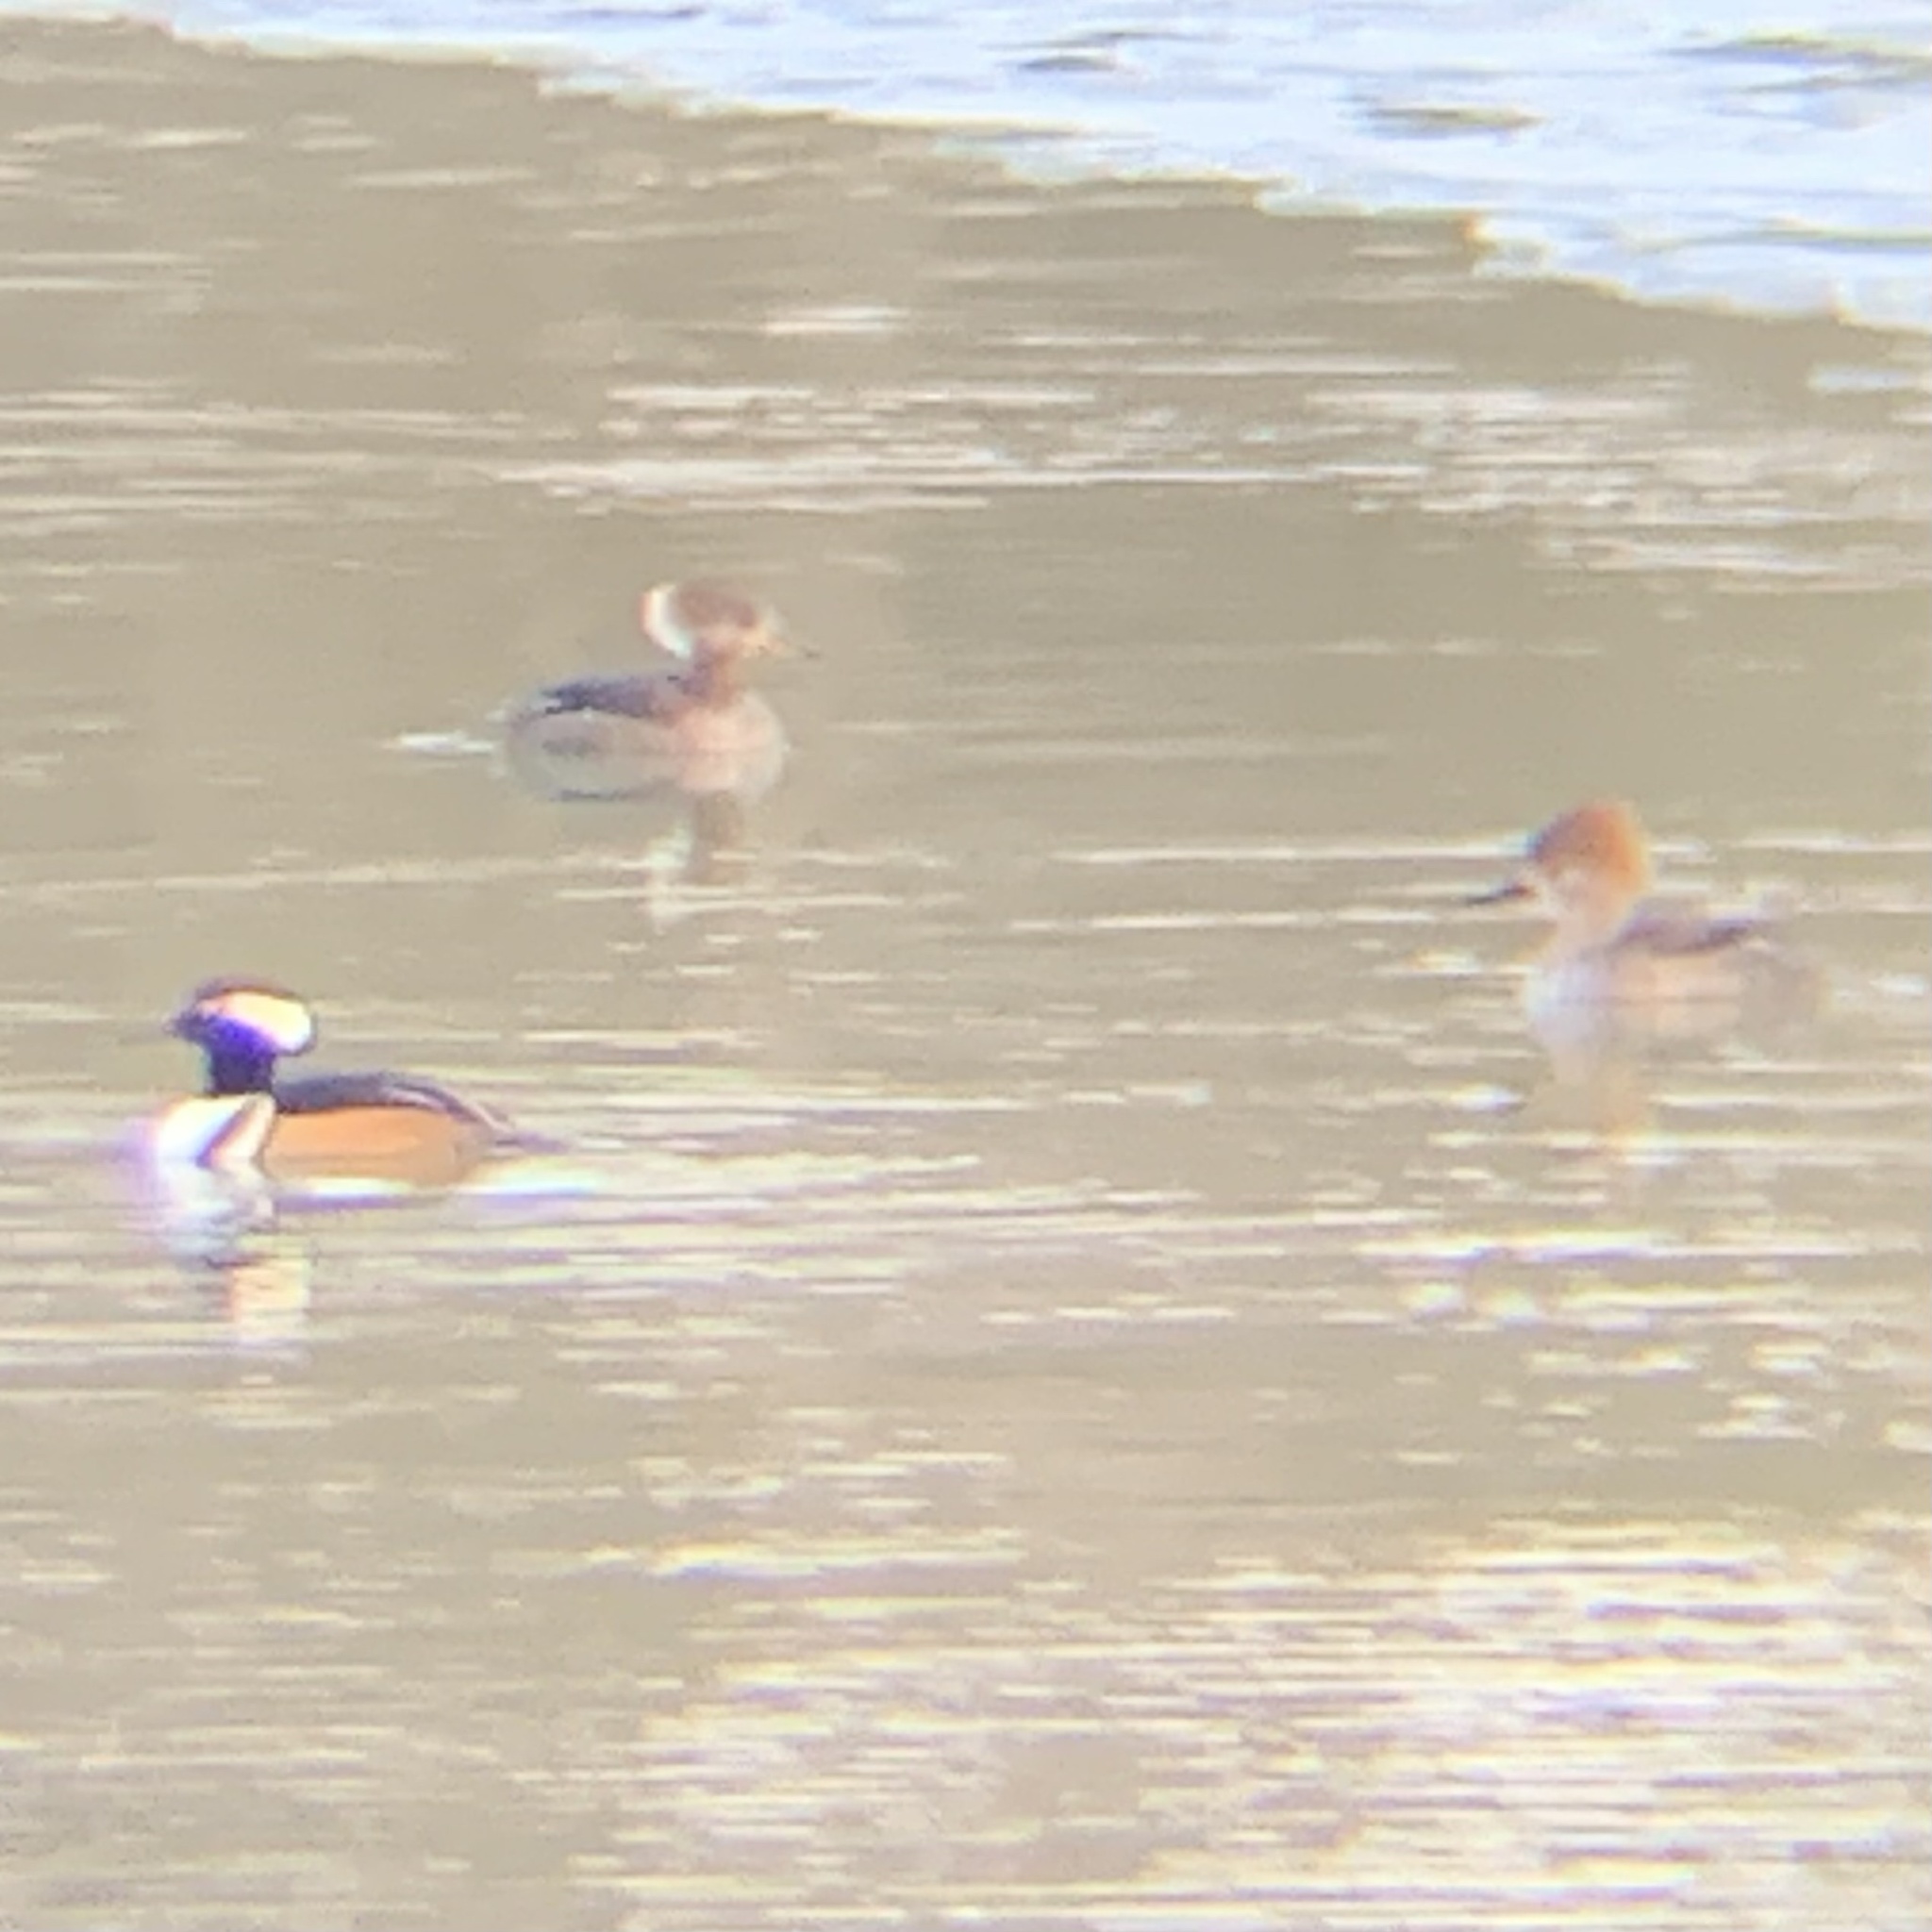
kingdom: Animalia
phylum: Chordata
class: Aves
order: Anseriformes
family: Anatidae
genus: Lophodytes
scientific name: Lophodytes cucullatus
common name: Hooded merganser
